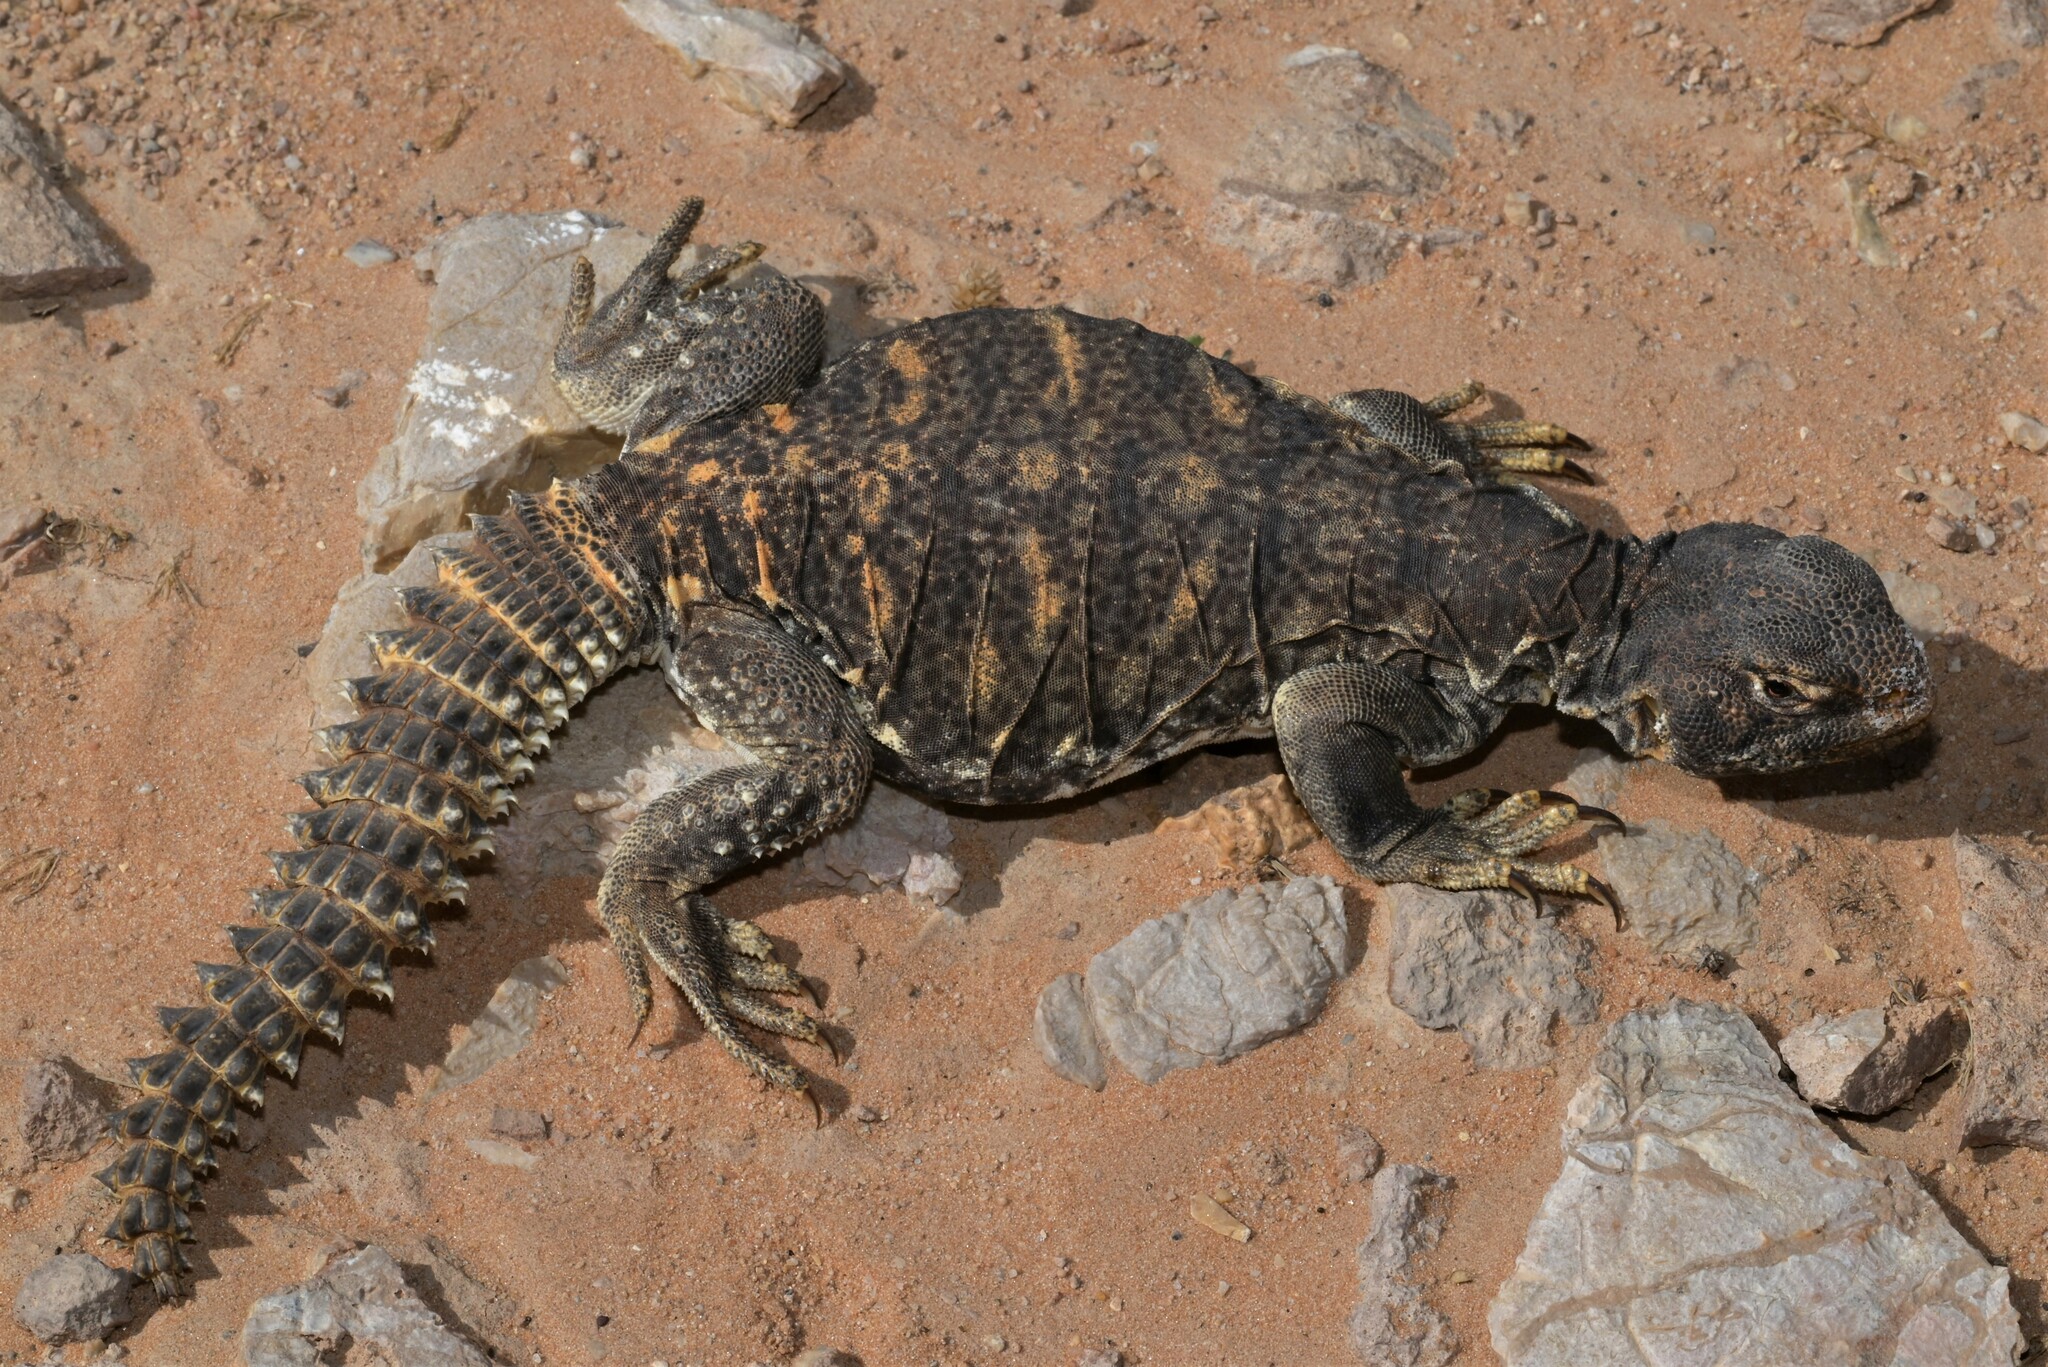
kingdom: Animalia
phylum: Chordata
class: Squamata
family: Agamidae
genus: Uromastyx
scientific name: Uromastyx aegyptia
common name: Egyptian mastigure
